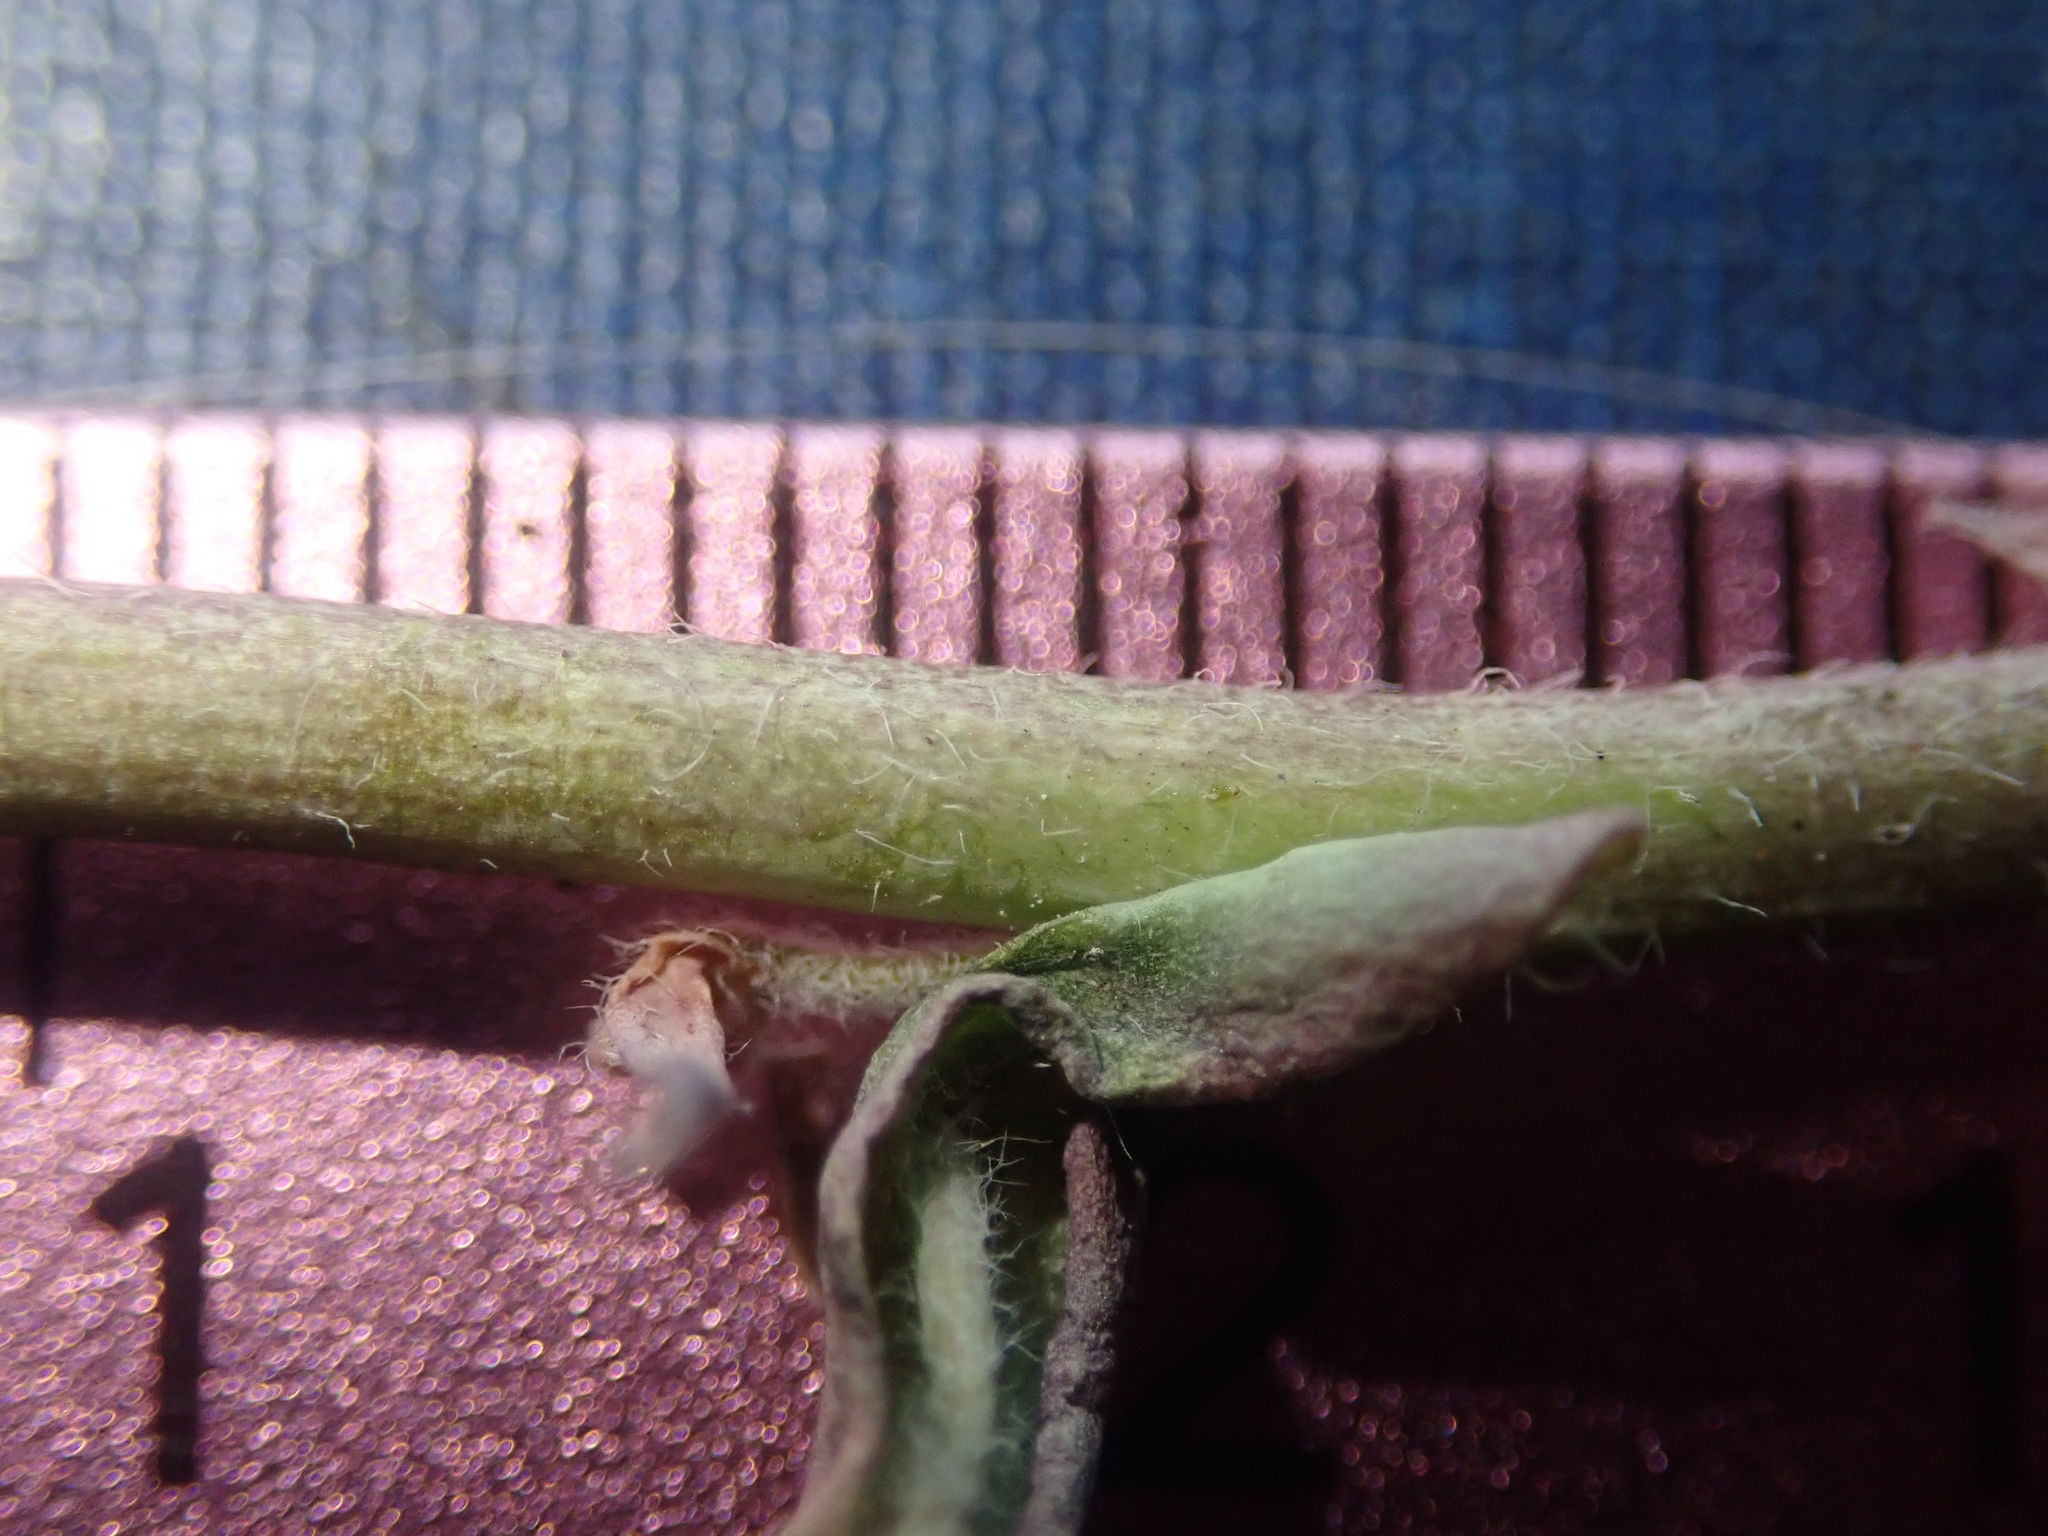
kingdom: Plantae
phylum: Tracheophyta
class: Magnoliopsida
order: Brassicales
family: Brassicaceae
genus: Boechera
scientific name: Boechera sparsiflora
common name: Elegant rockcress
